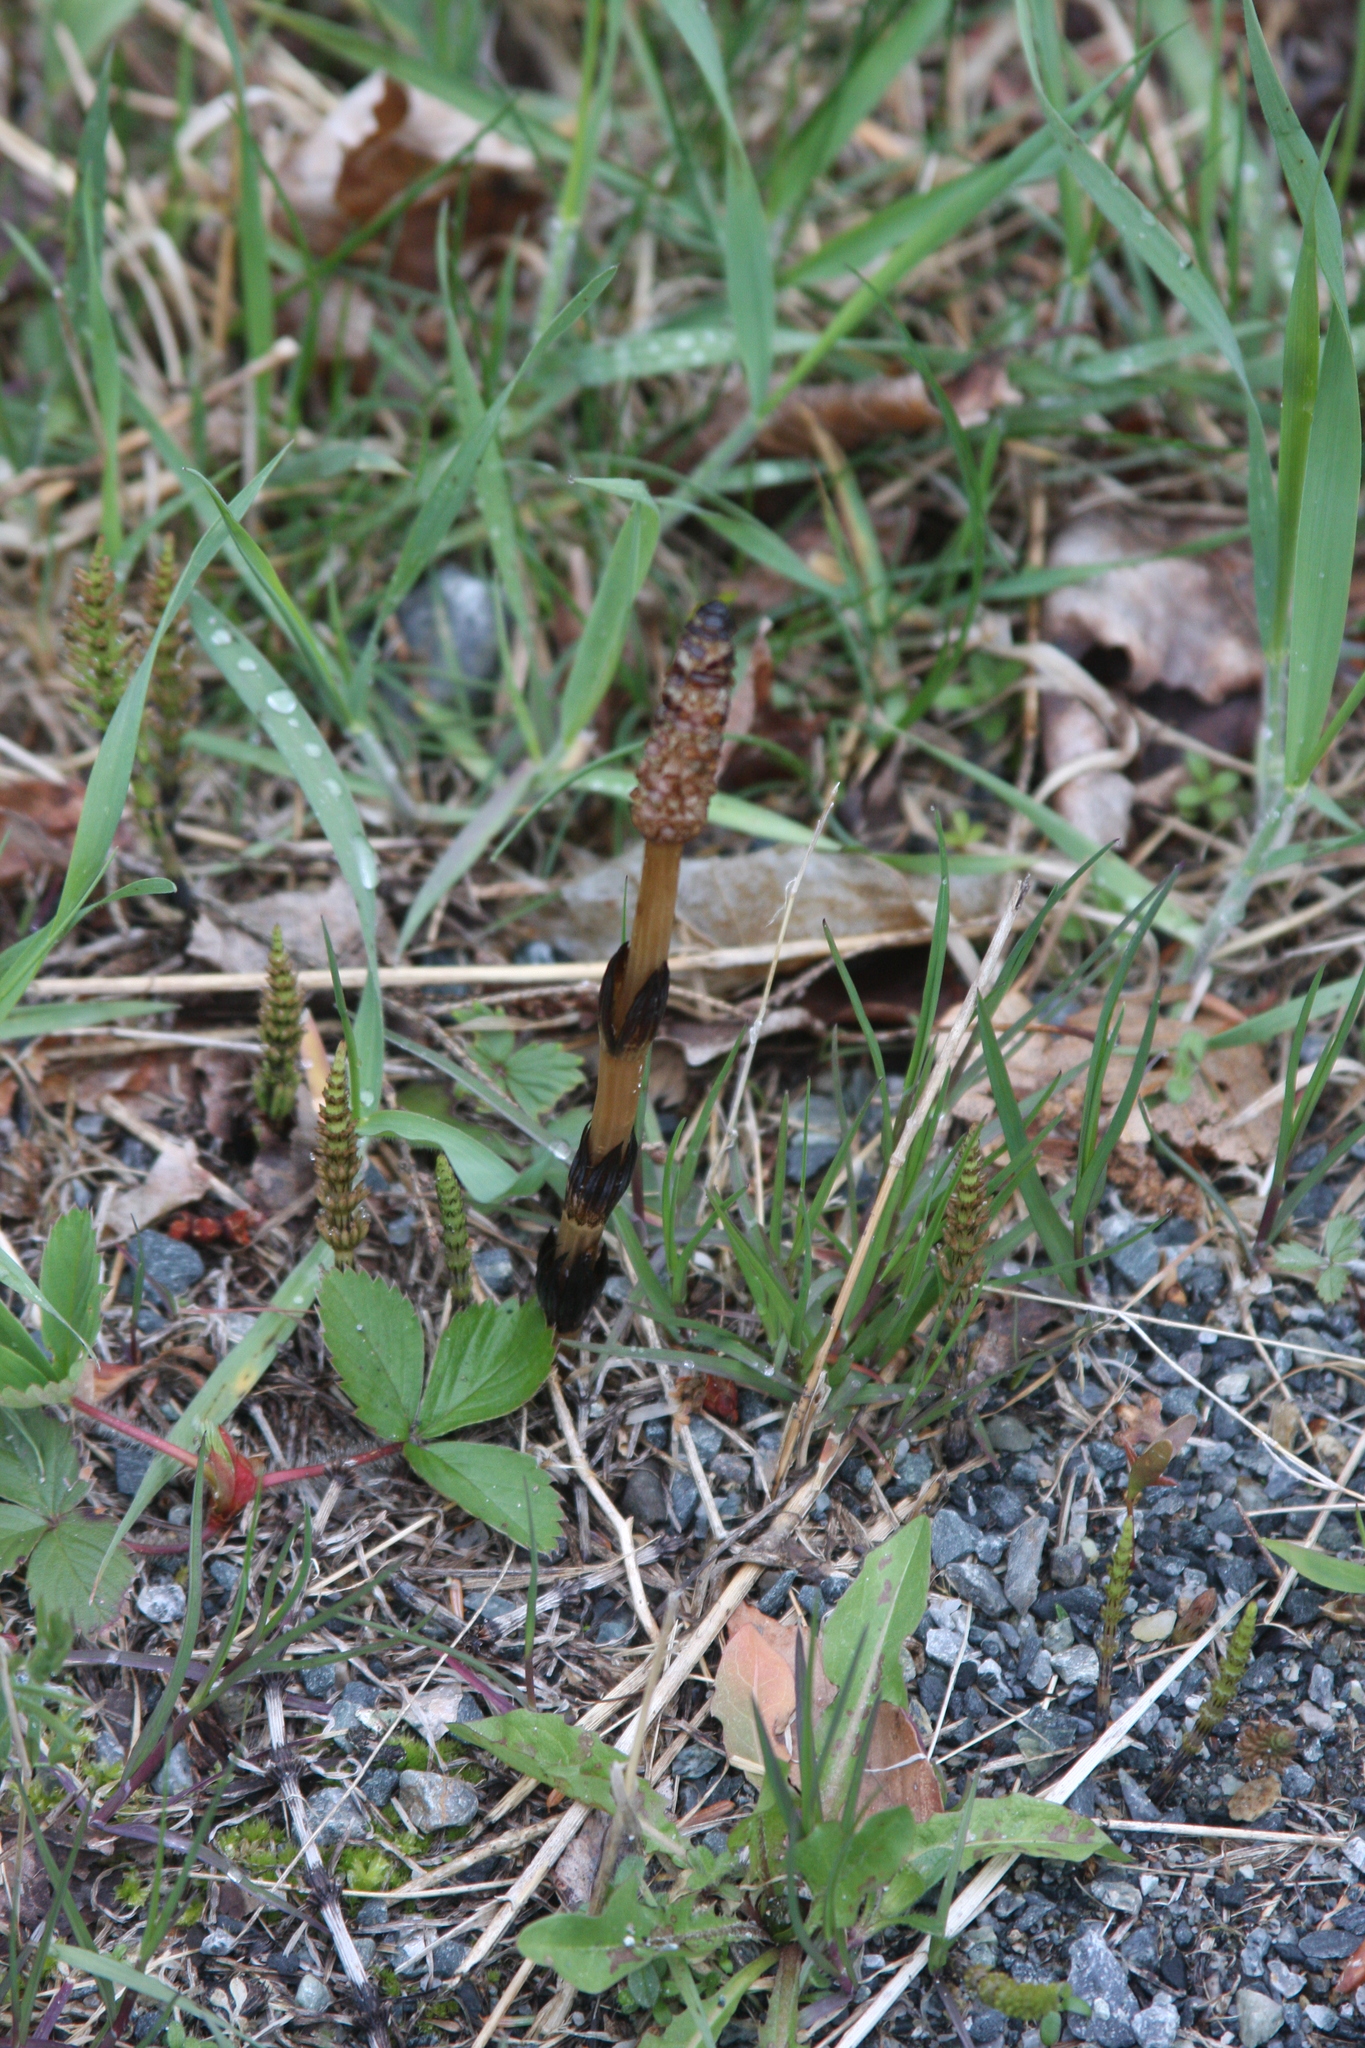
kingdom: Plantae
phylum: Tracheophyta
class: Polypodiopsida
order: Equisetales
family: Equisetaceae
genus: Equisetum
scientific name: Equisetum arvense
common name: Field horsetail
